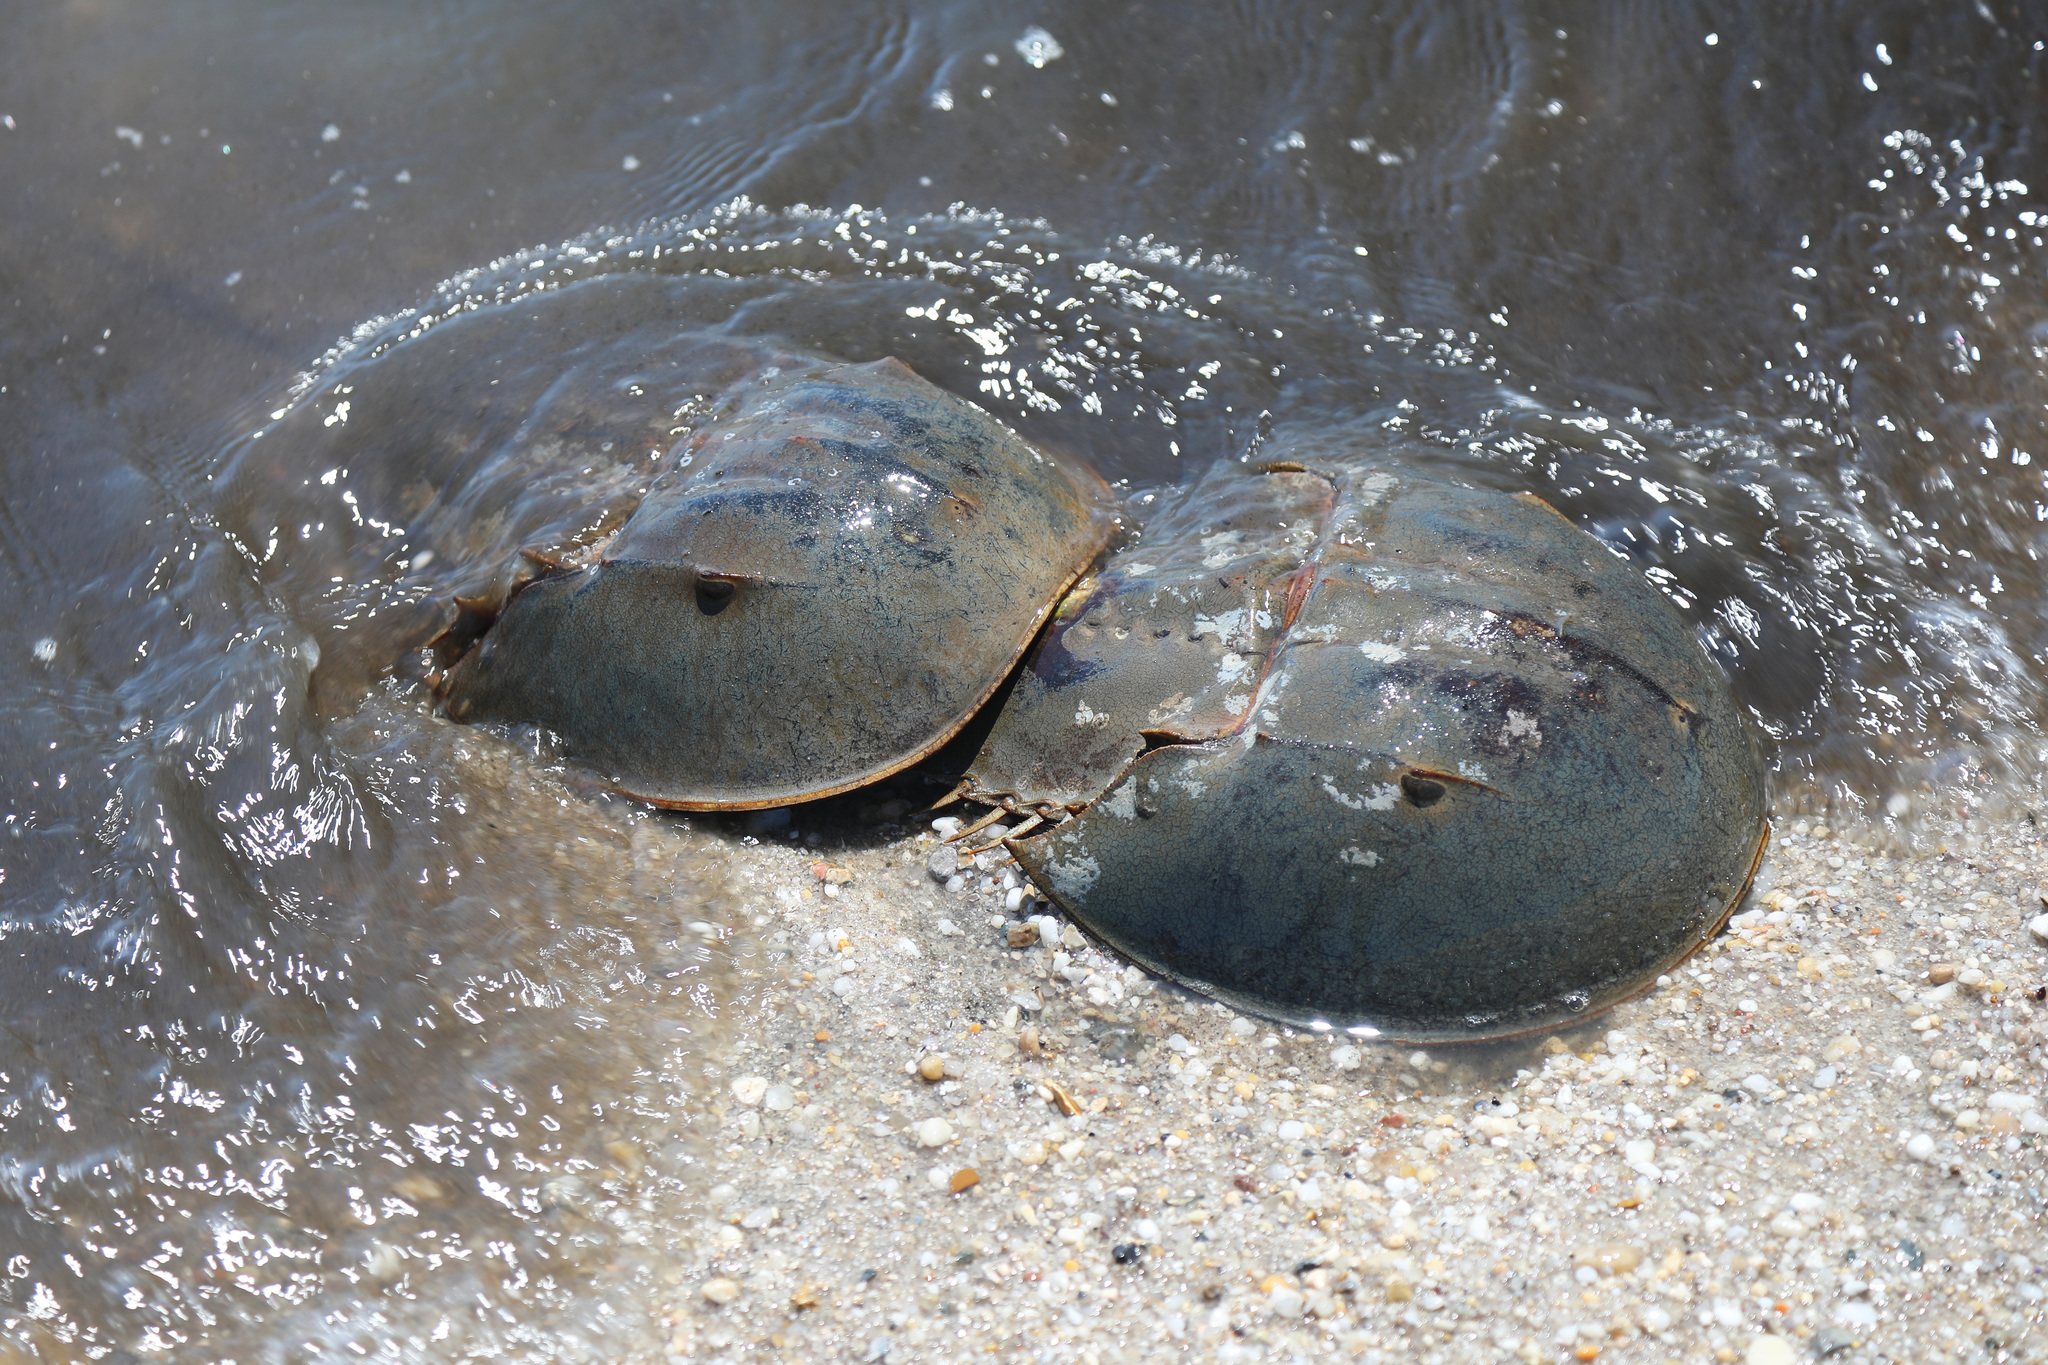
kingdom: Animalia
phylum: Arthropoda
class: Merostomata
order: Xiphosurida
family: Limulidae
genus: Limulus
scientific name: Limulus polyphemus
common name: Horseshoe crab
